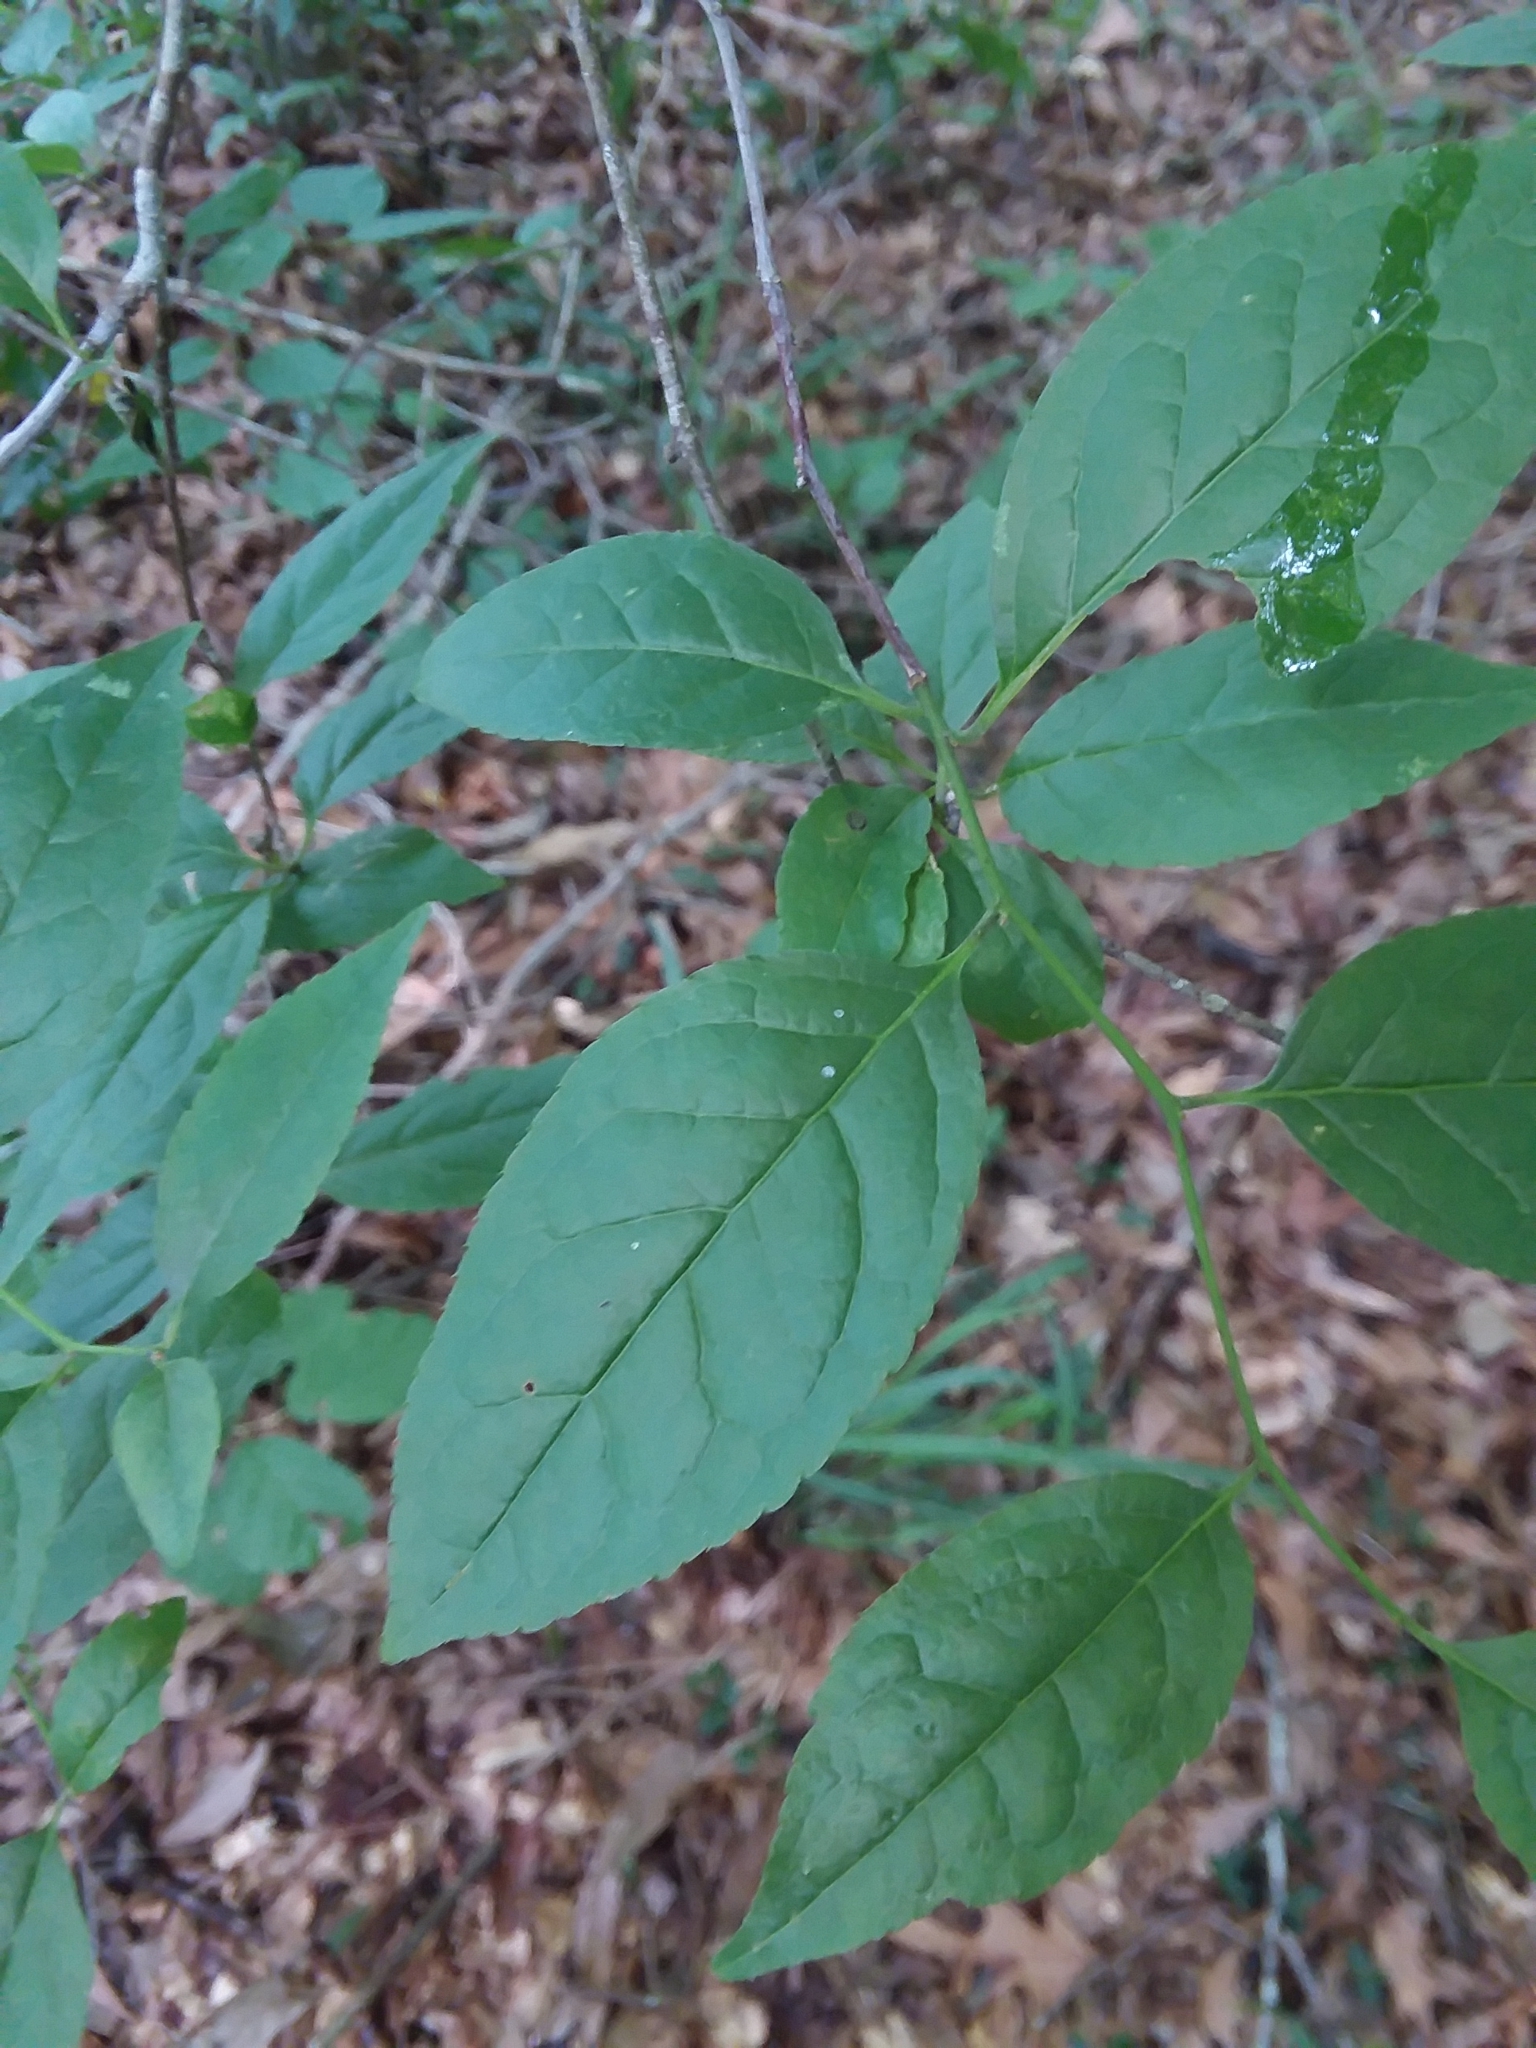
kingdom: Plantae
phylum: Tracheophyta
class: Magnoliopsida
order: Aquifoliales
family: Aquifoliaceae
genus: Ilex
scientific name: Ilex ambigua
